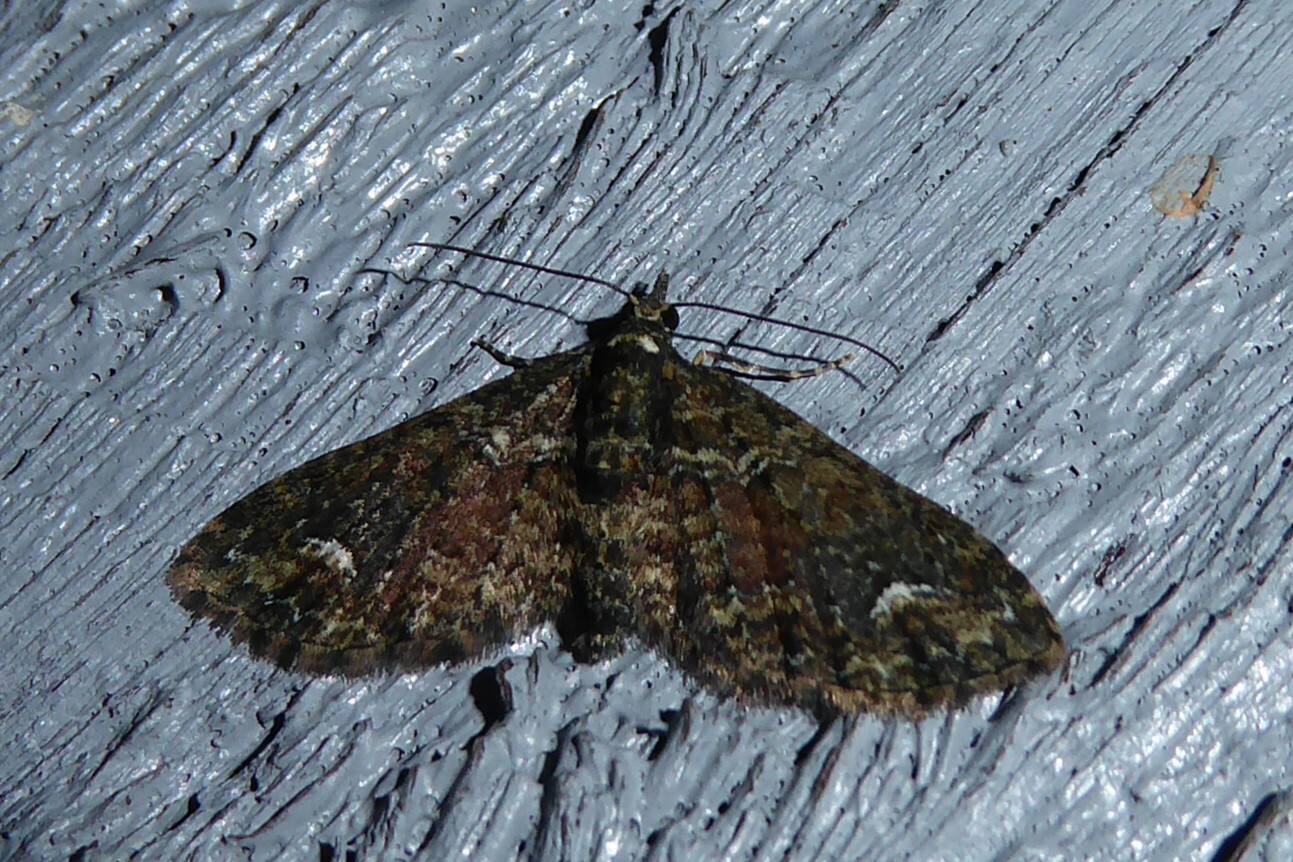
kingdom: Animalia
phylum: Arthropoda
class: Insecta
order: Lepidoptera
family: Geometridae
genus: Pasiphilodes
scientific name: Pasiphilodes testulata
